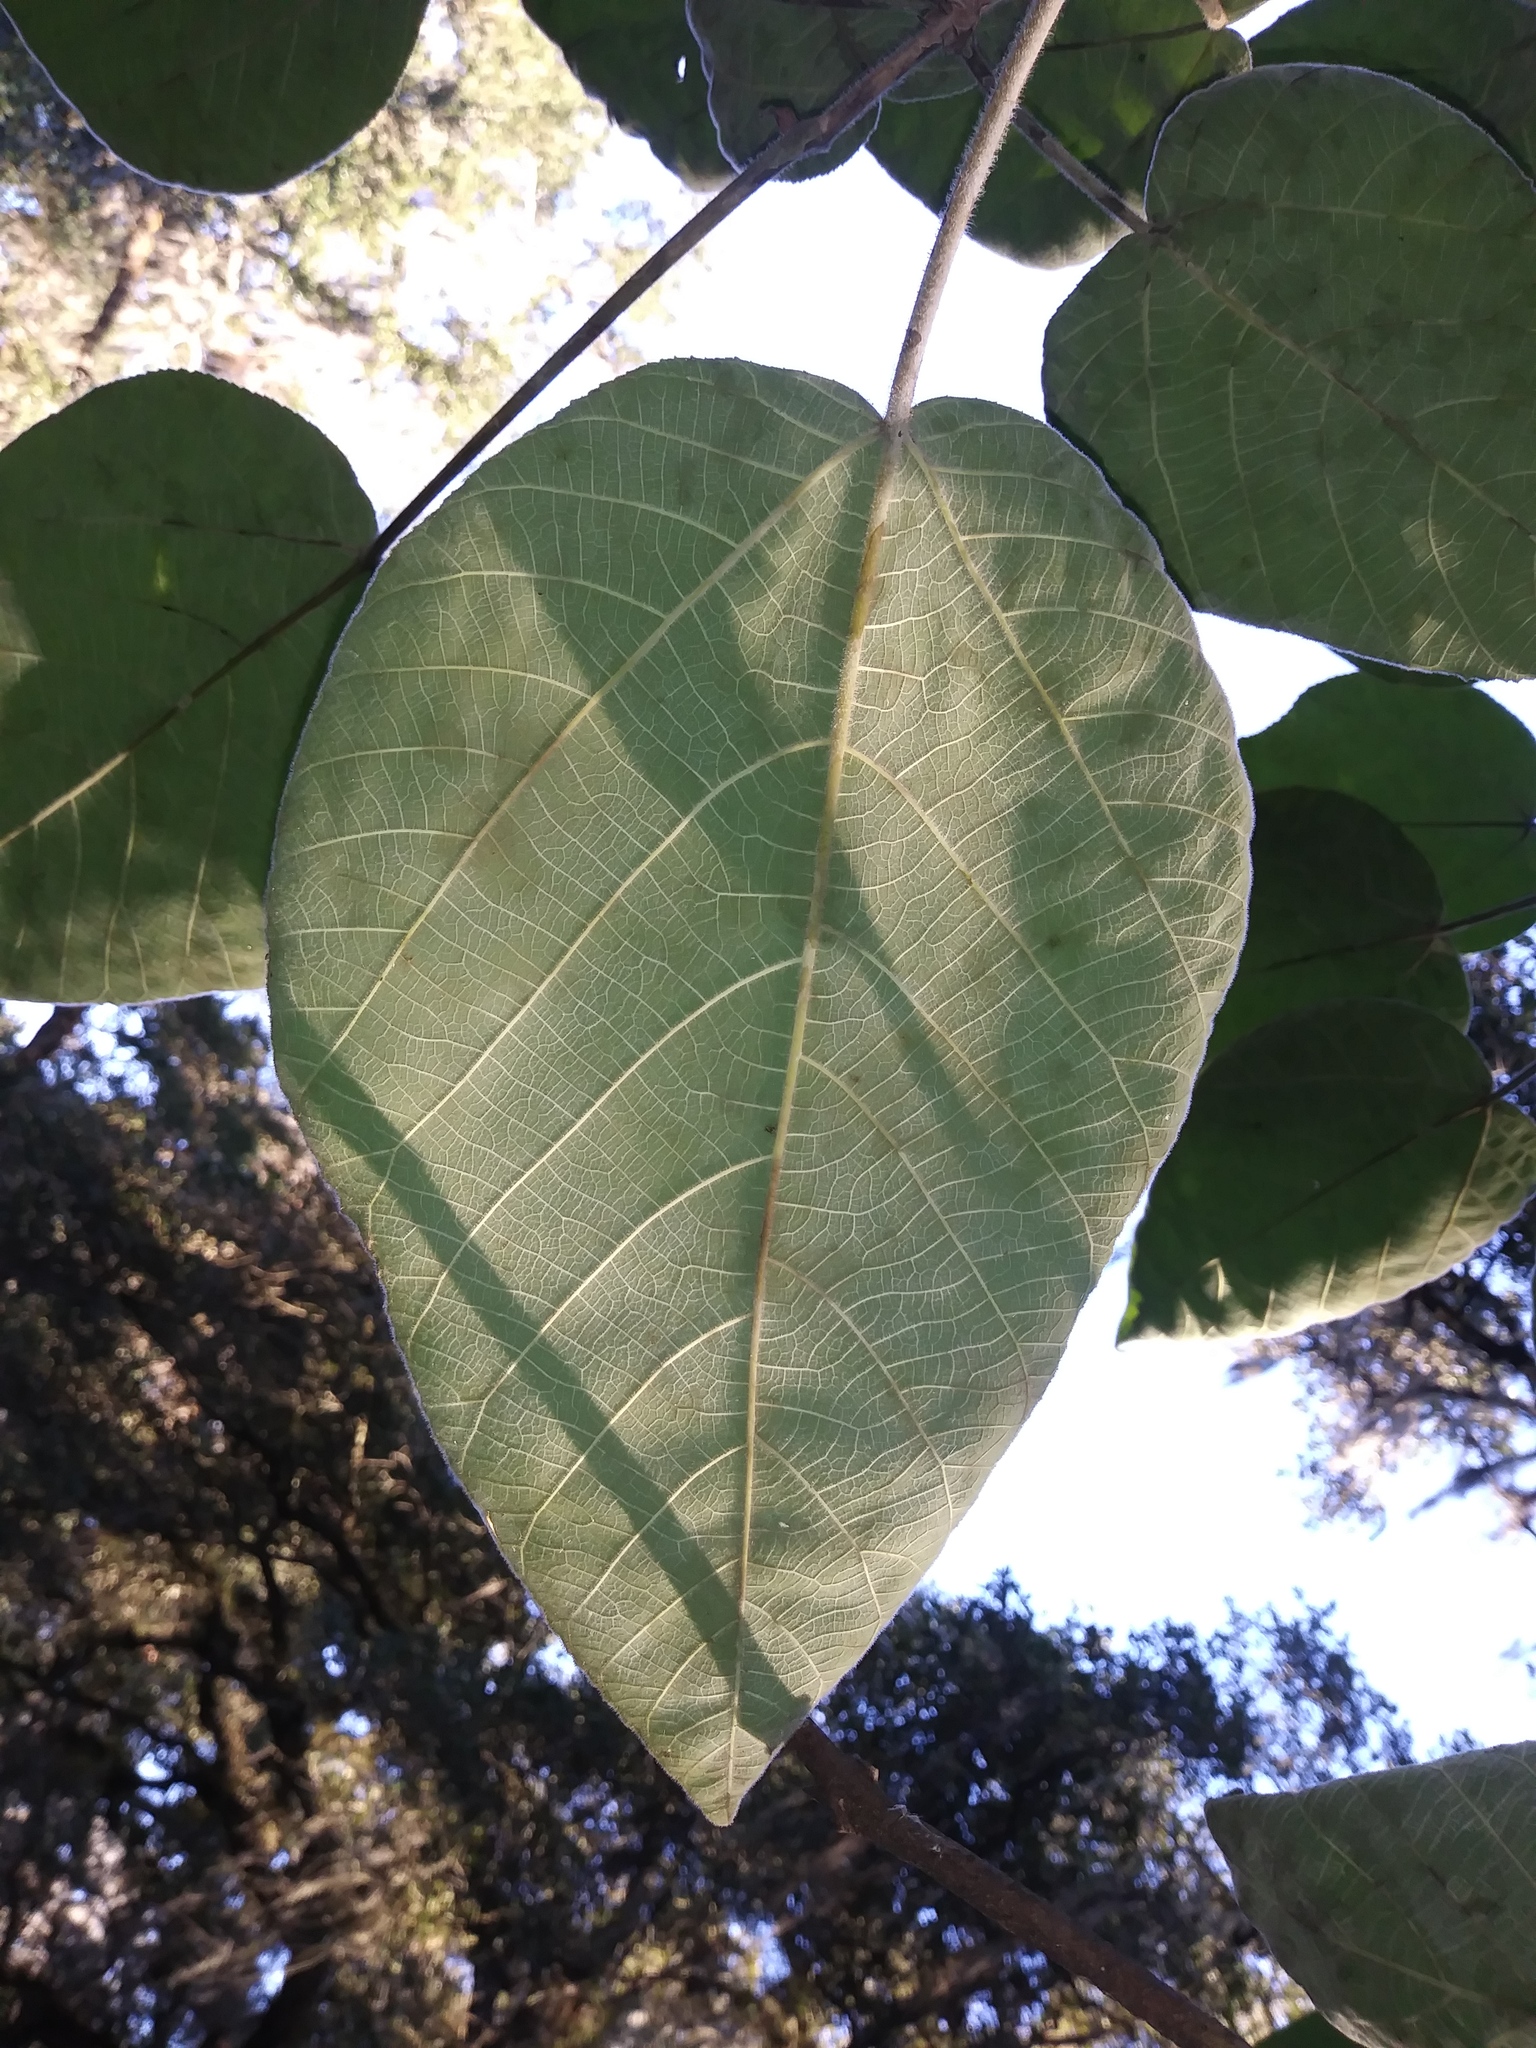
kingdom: Plantae
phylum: Tracheophyta
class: Magnoliopsida
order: Rosales
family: Moraceae
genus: Broussonetia
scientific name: Broussonetia papyrifera
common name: Paper mulberry
